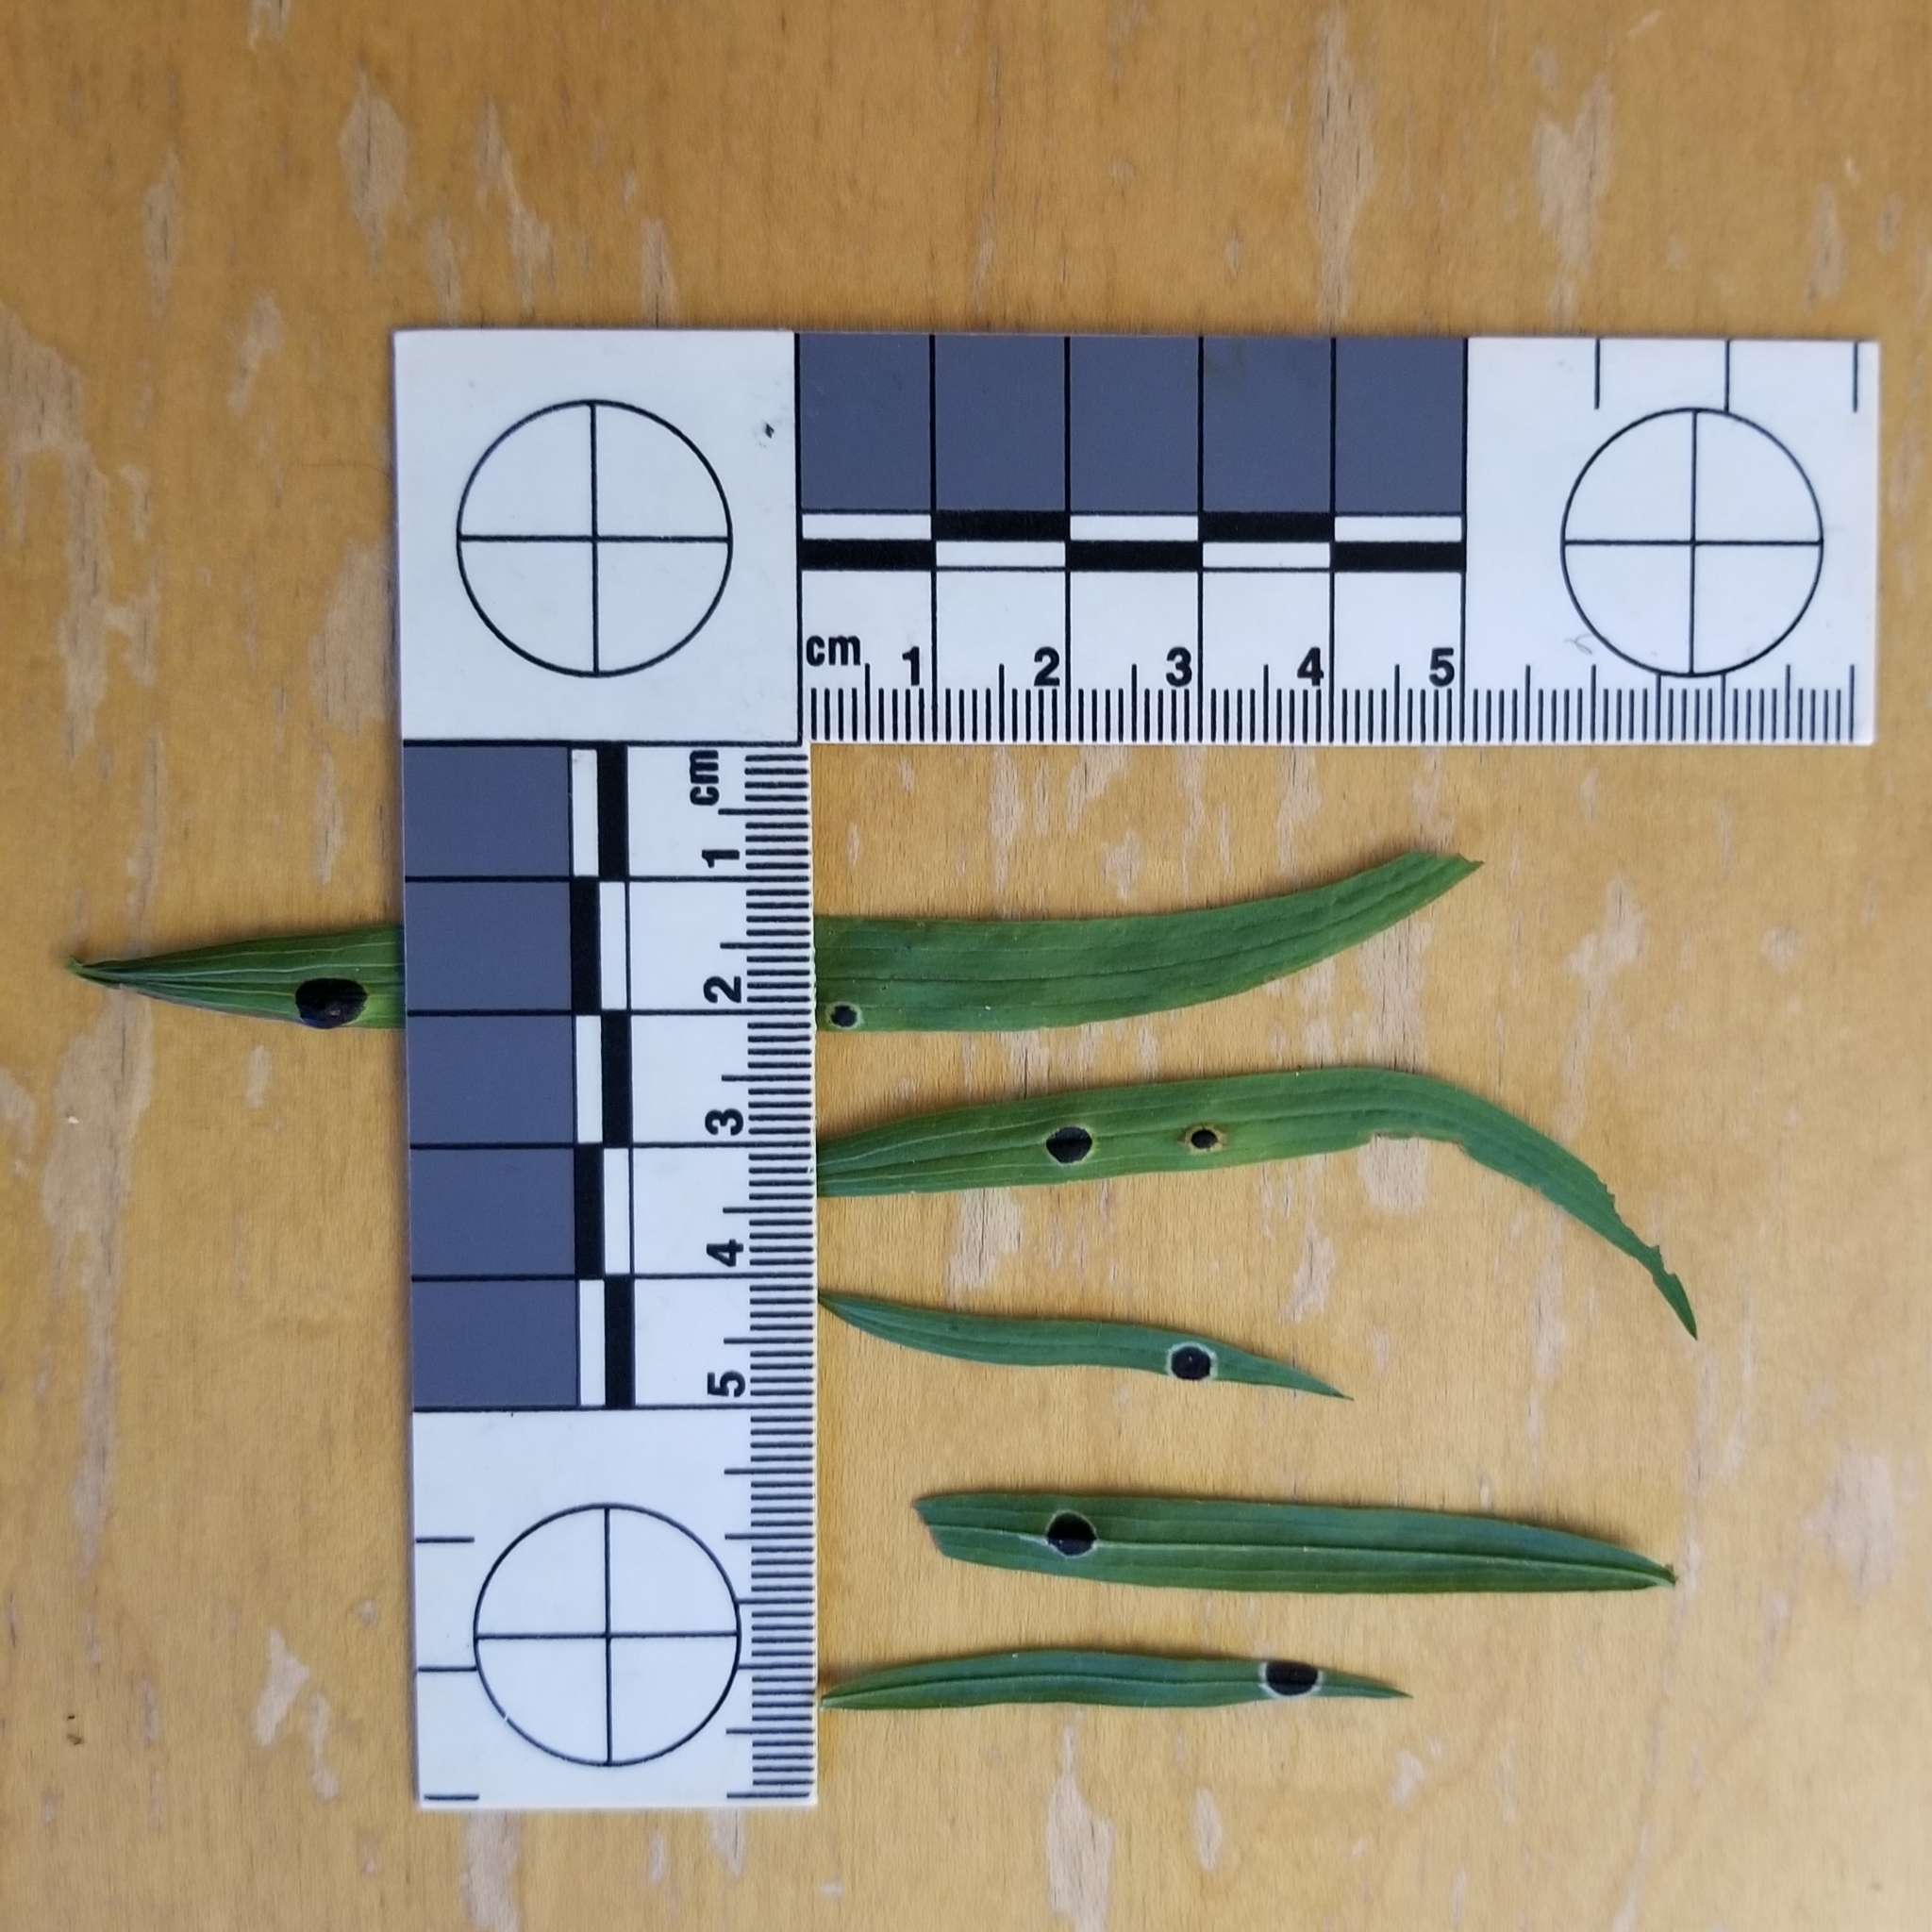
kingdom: Animalia
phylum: Arthropoda
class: Insecta
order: Diptera
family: Cecidomyiidae
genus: Asteromyia
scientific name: Asteromyia euthamiae
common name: Euthamia leaf gall midge
